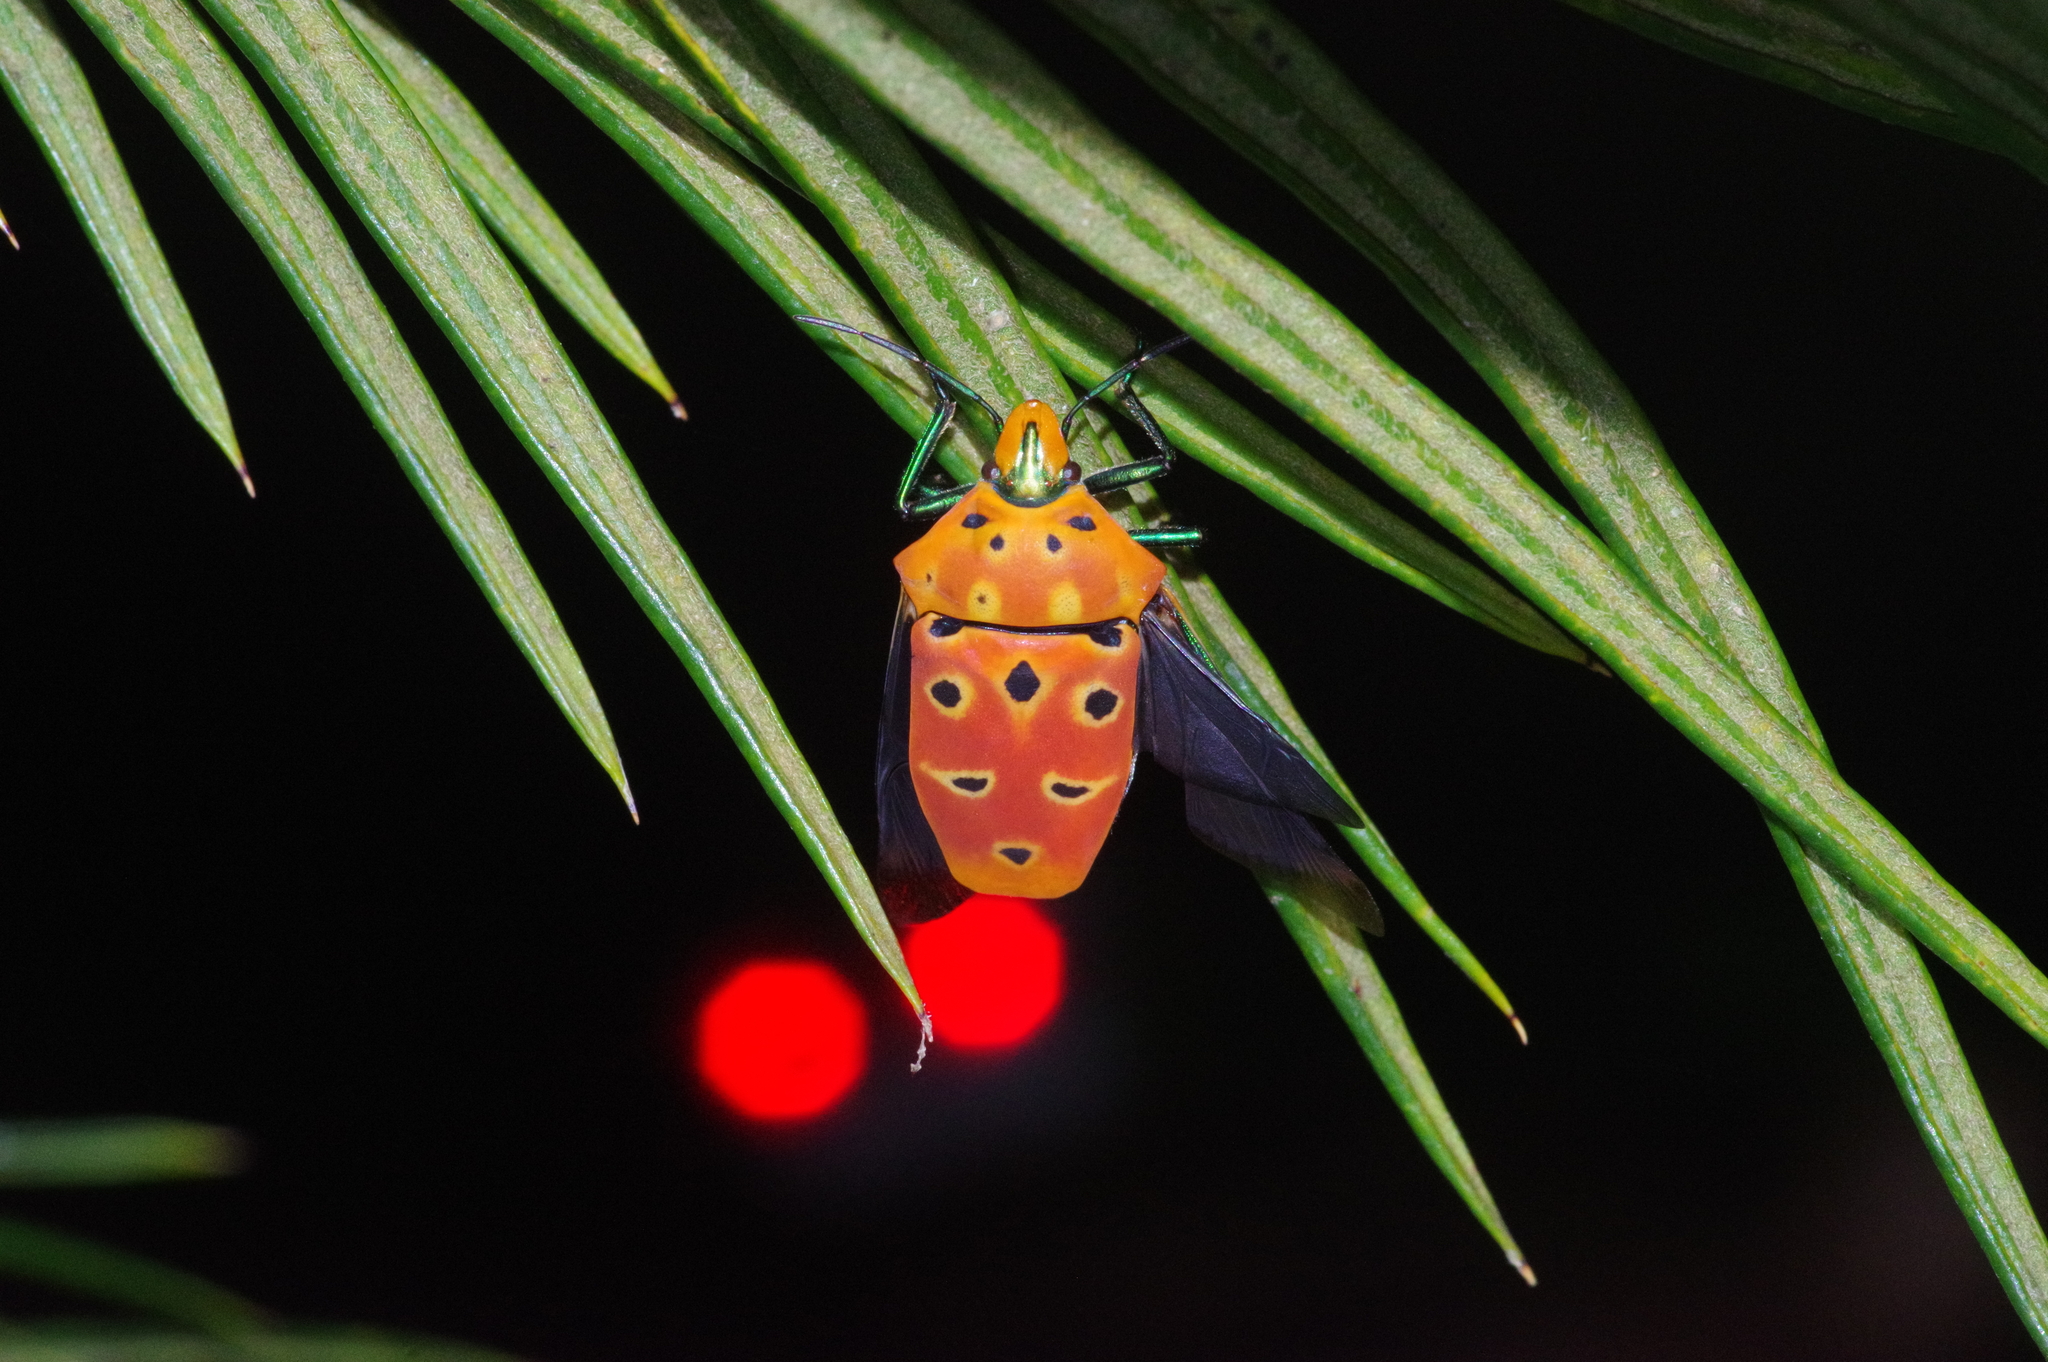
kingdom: Animalia
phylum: Arthropoda
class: Insecta
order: Hemiptera
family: Scutelleridae
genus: Cantao
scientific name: Cantao ocellatus
